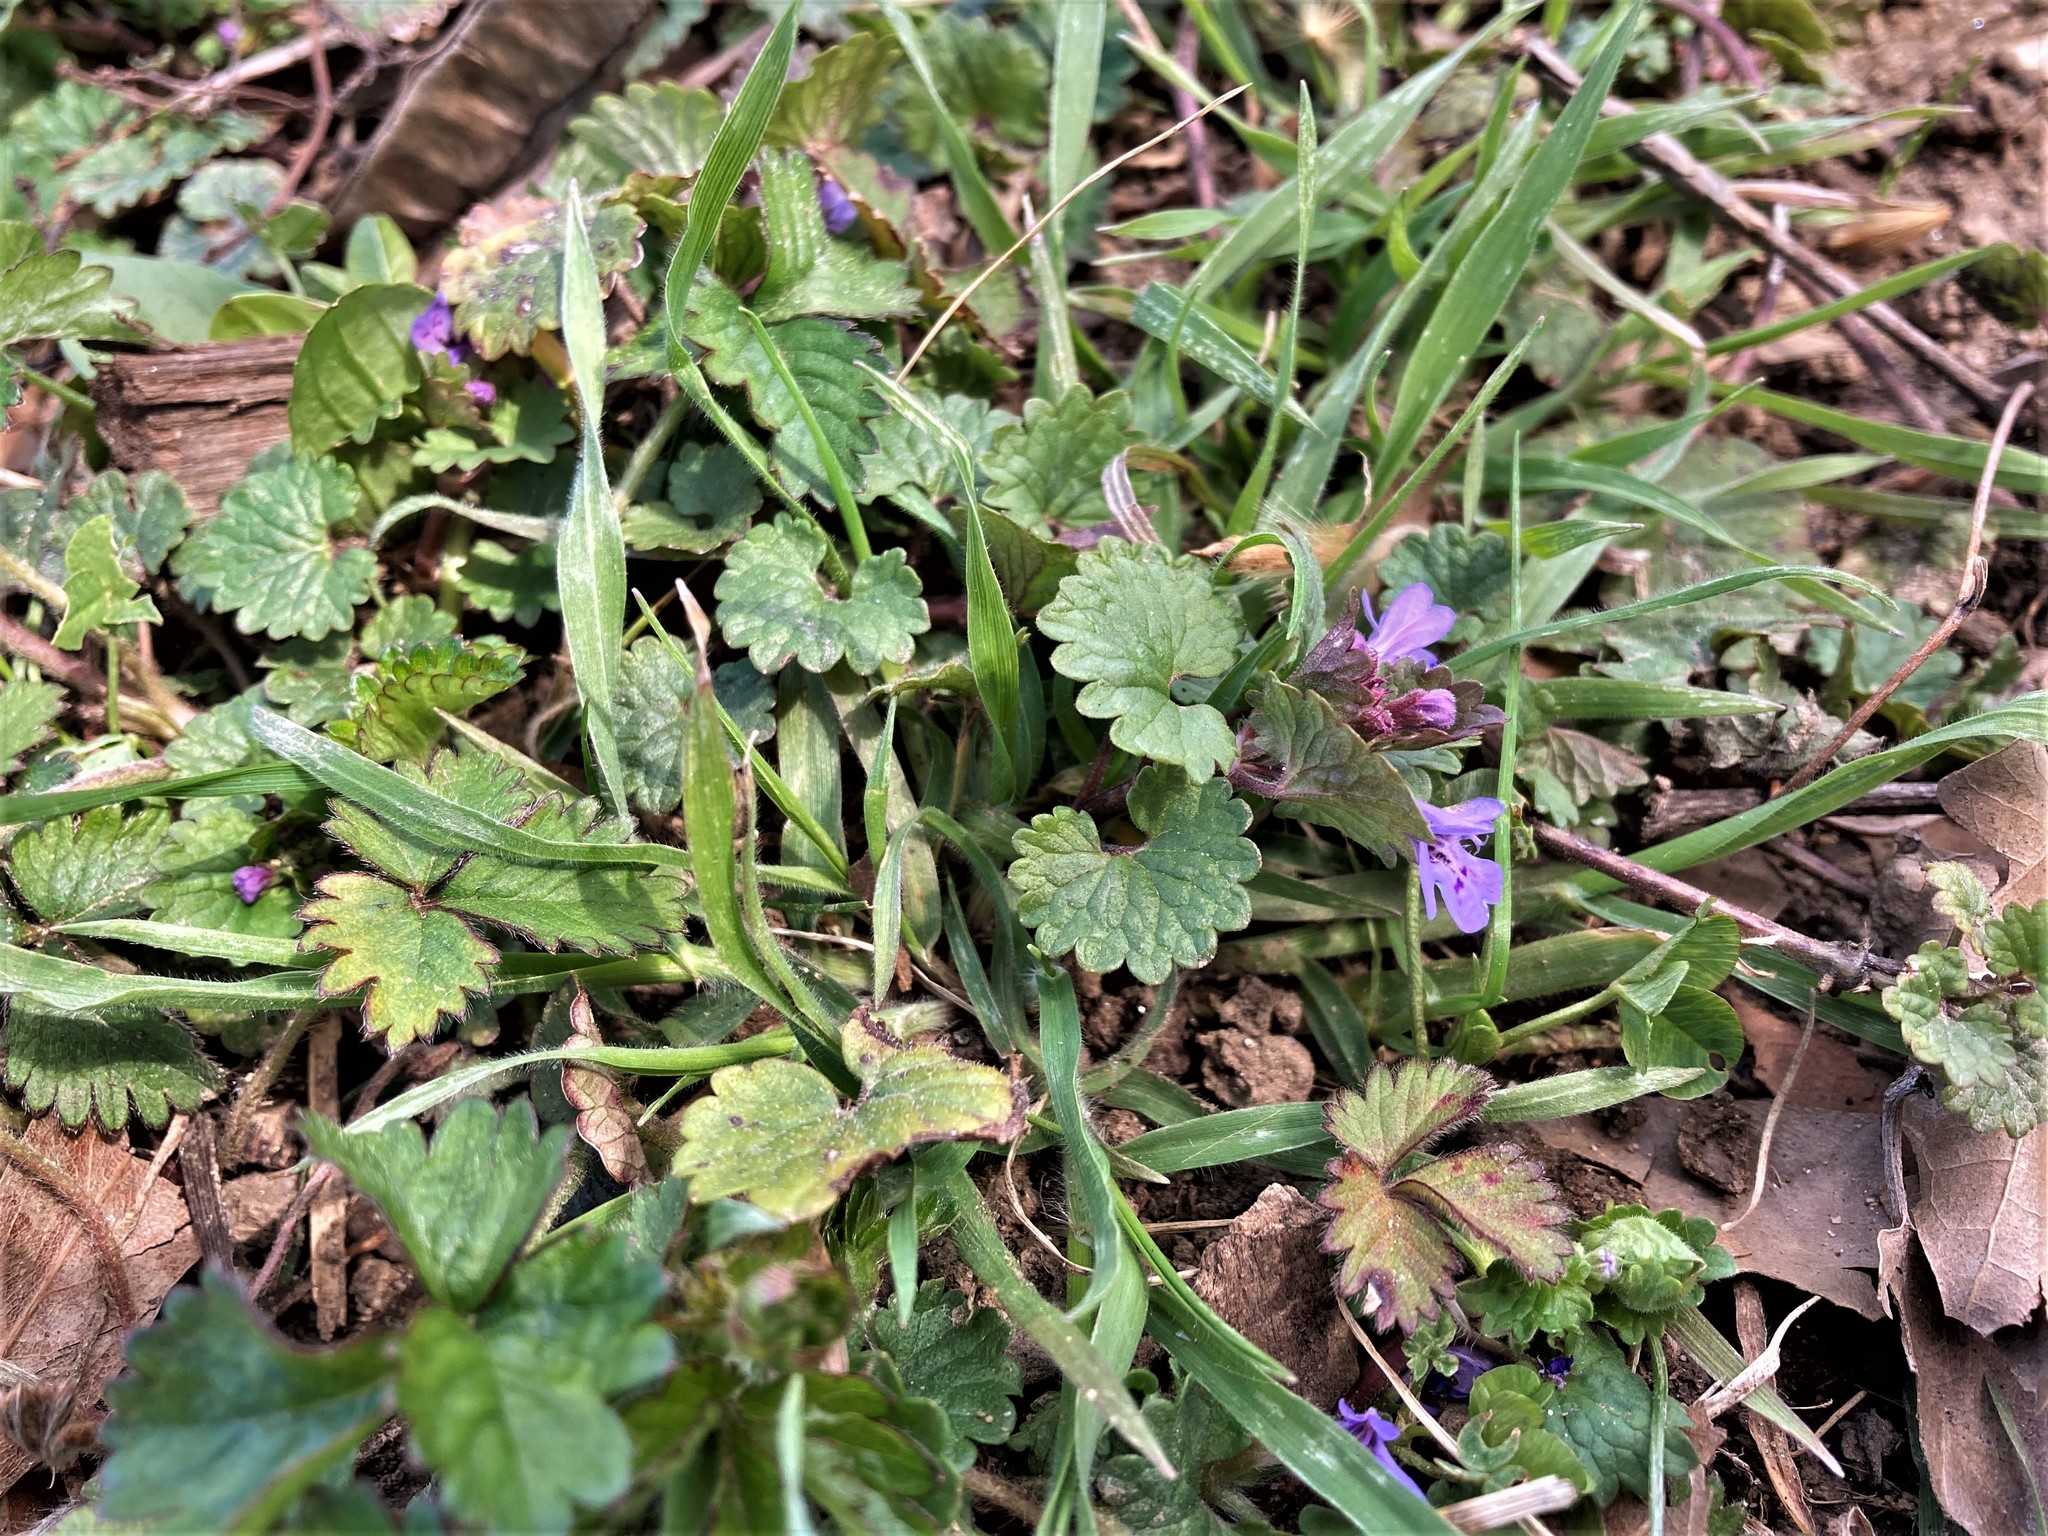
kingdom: Plantae
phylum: Tracheophyta
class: Magnoliopsida
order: Lamiales
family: Lamiaceae
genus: Glechoma
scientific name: Glechoma hederacea
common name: Ground ivy
